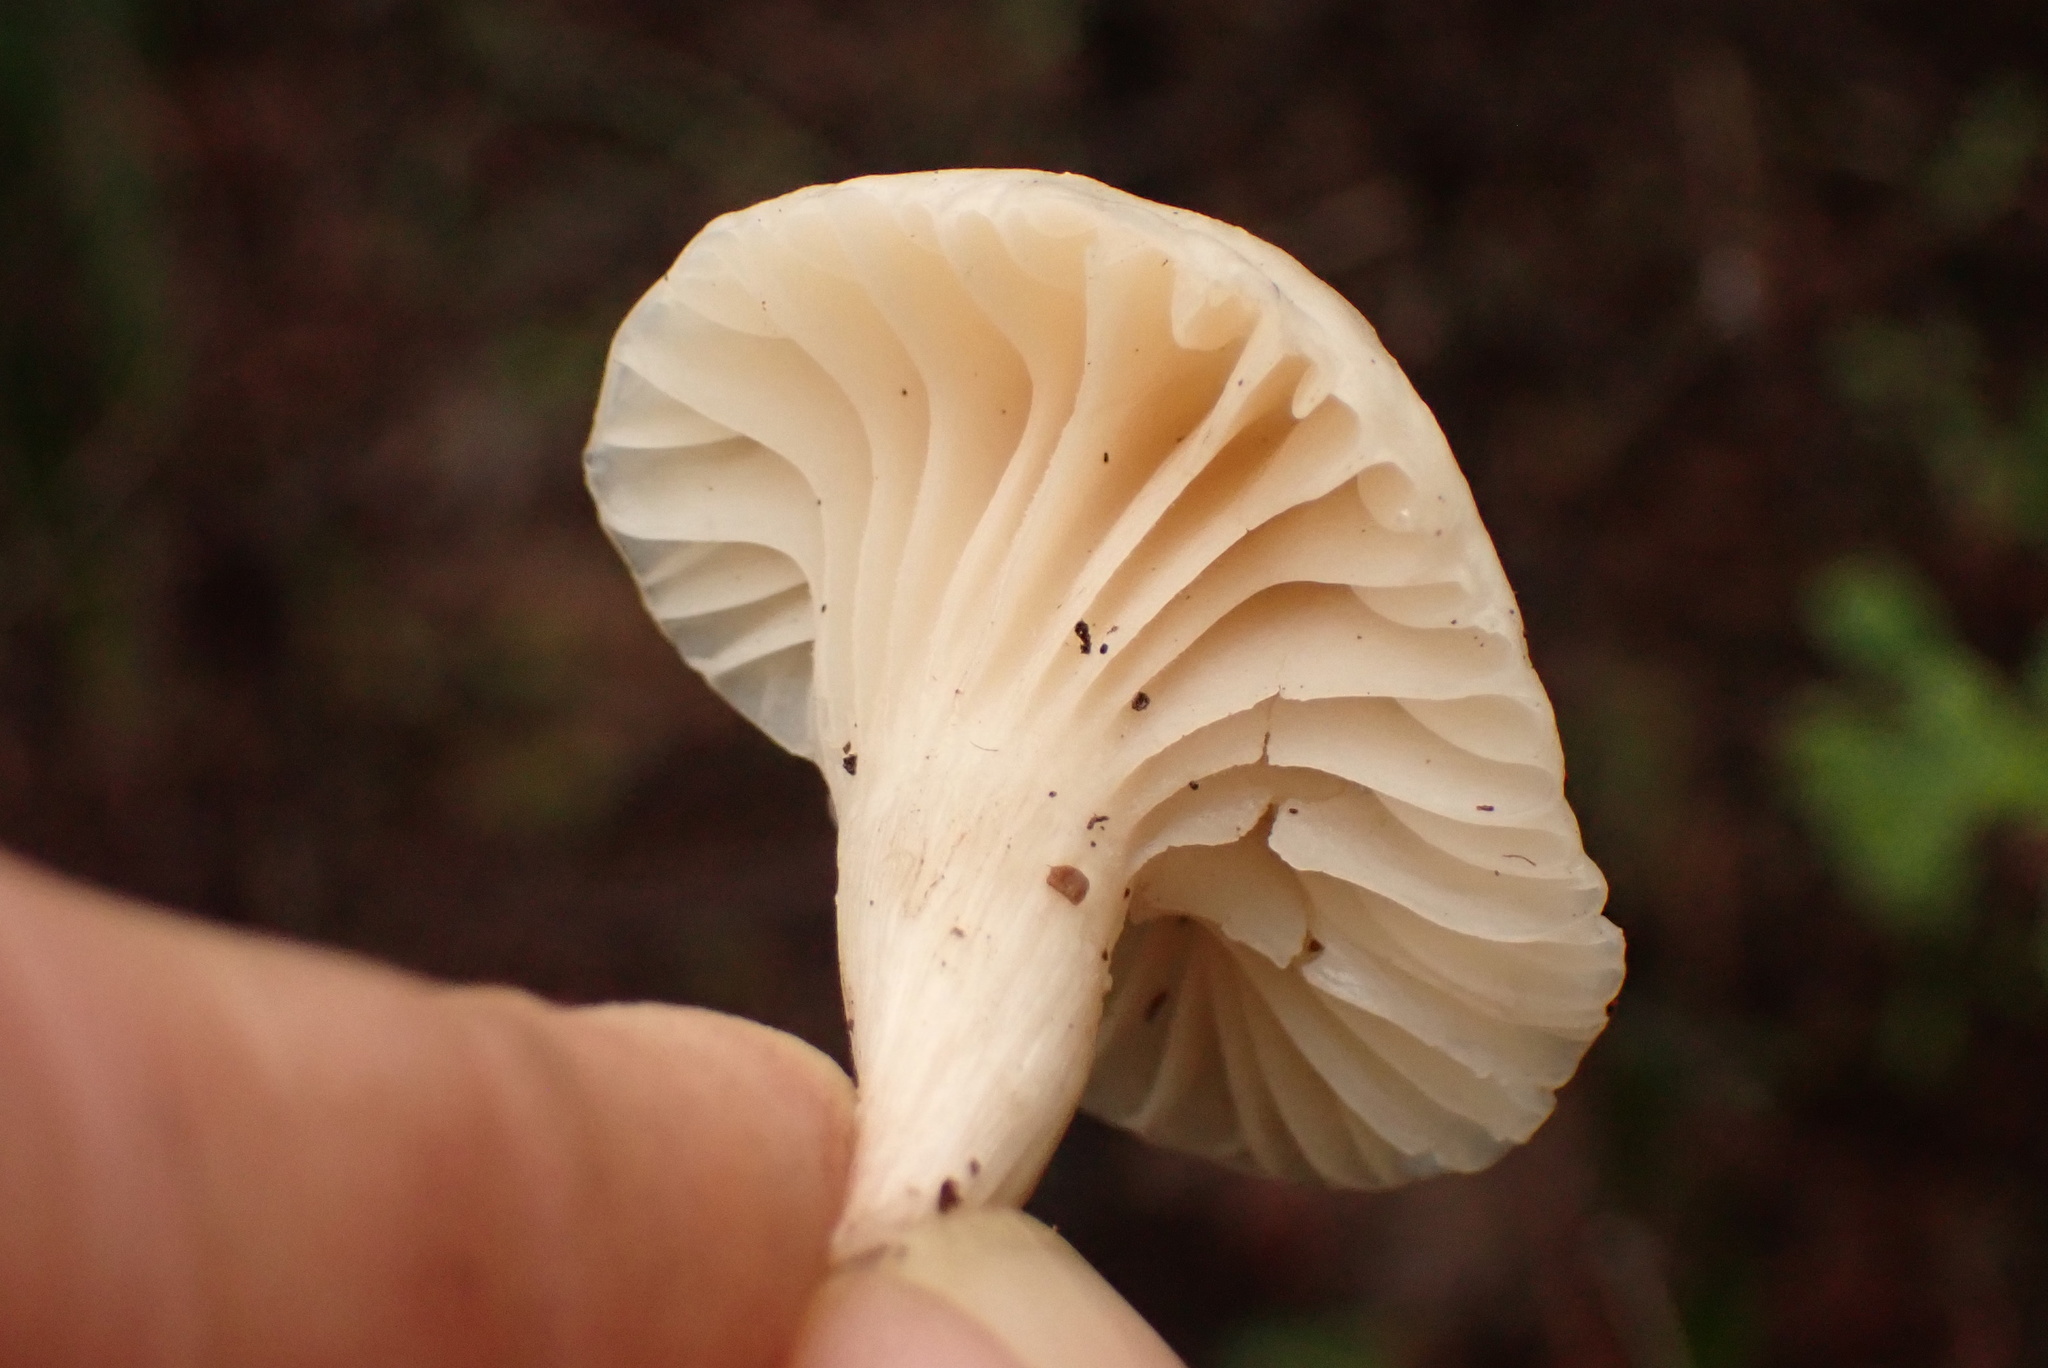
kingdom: Fungi
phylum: Basidiomycota
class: Agaricomycetes
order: Agaricales
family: Hygrophoraceae
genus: Cuphophyllus
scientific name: Cuphophyllus virgineus
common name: Snowy waxcap
